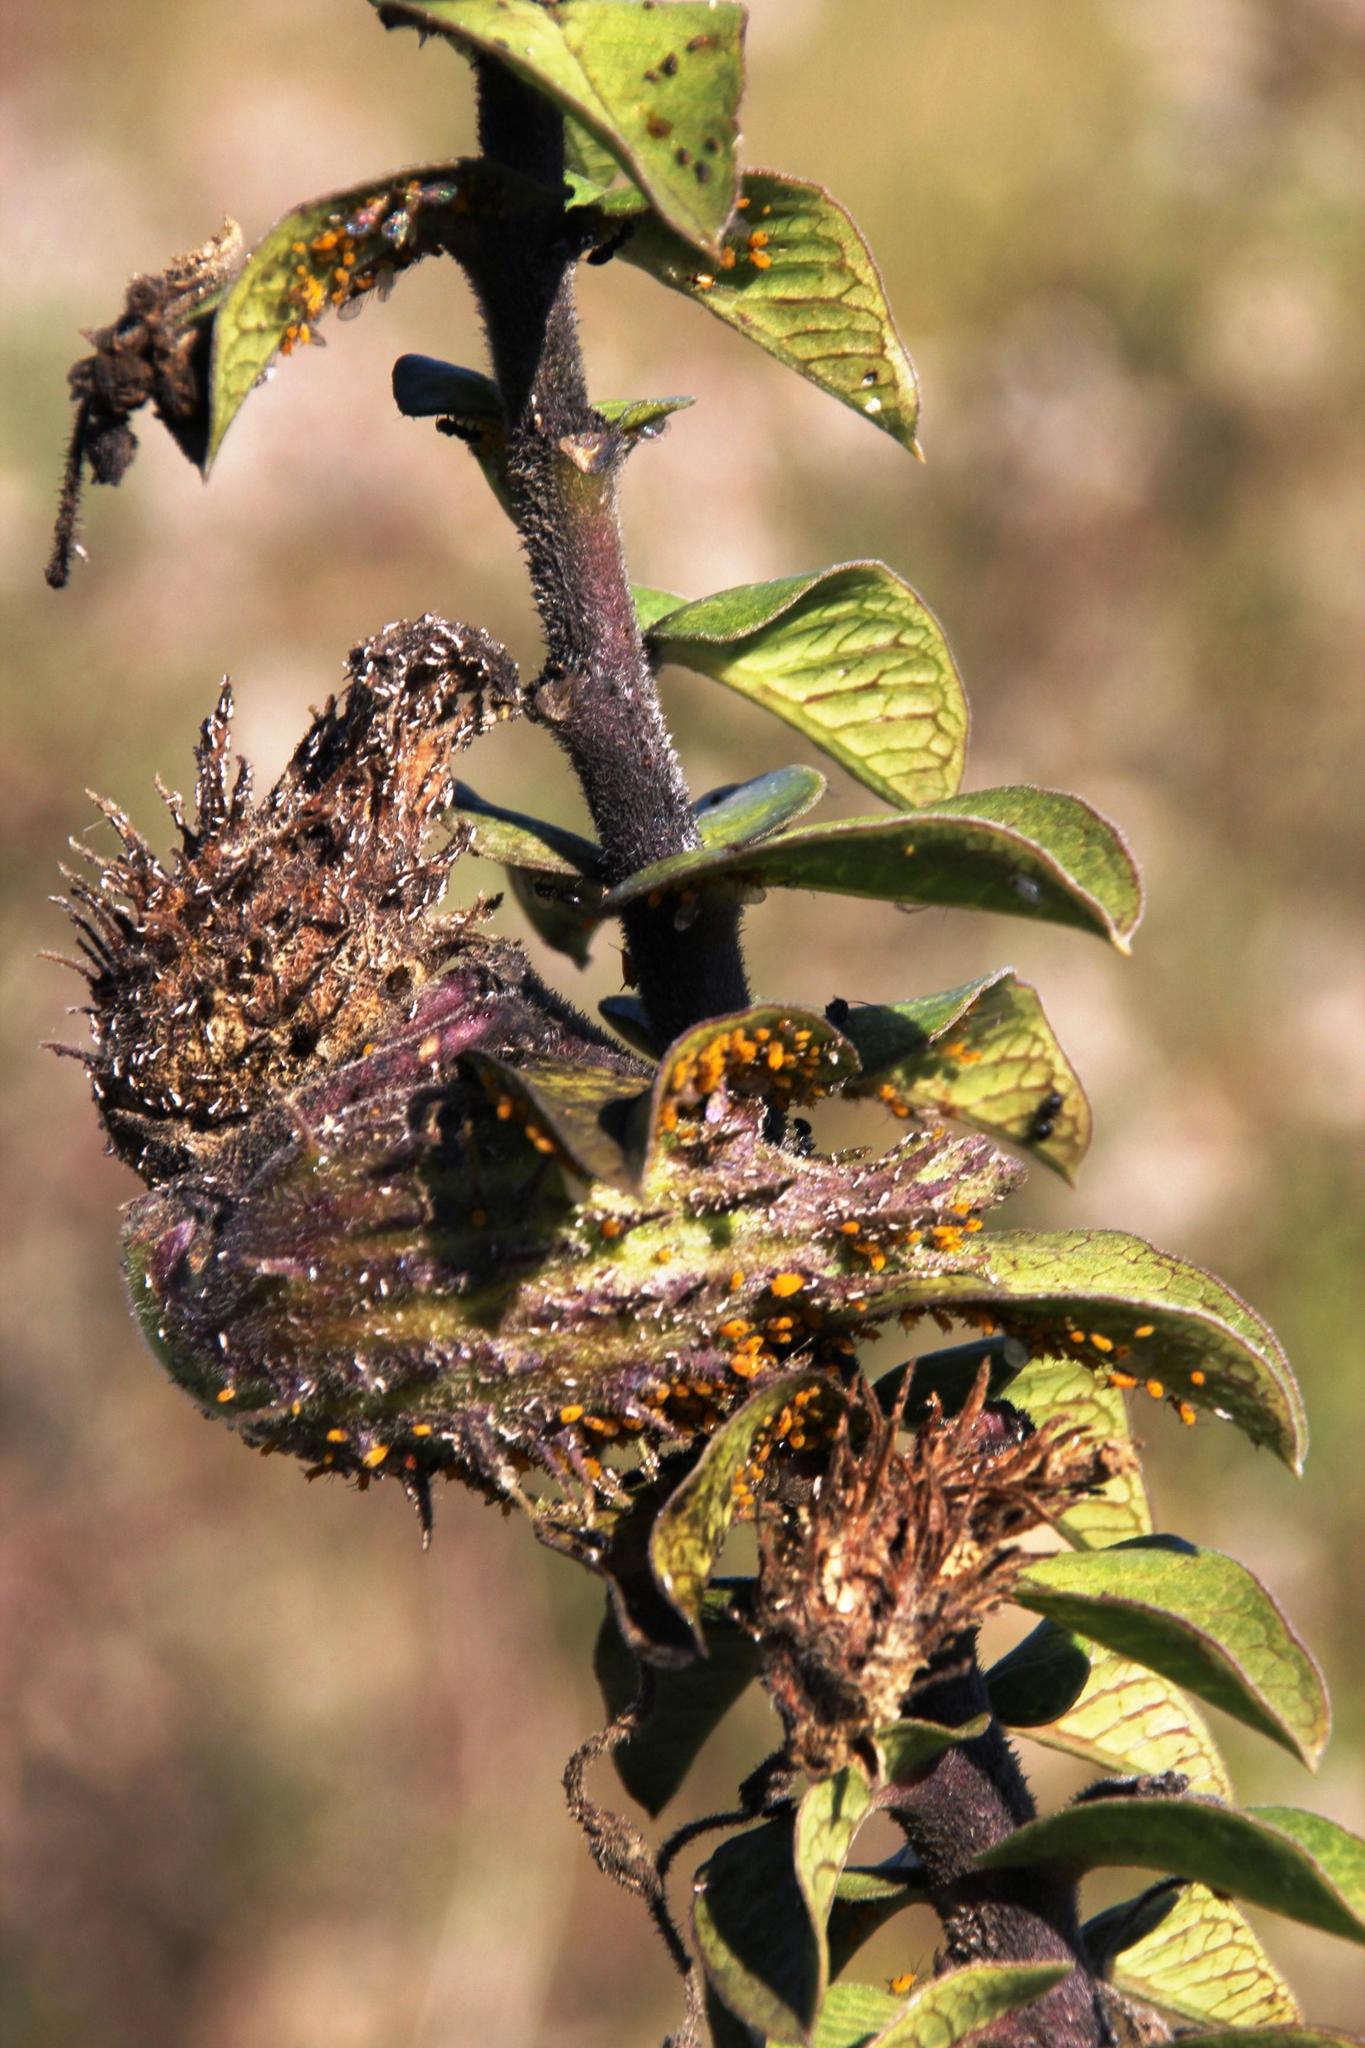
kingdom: Plantae
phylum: Tracheophyta
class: Magnoliopsida
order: Gentianales
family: Apocynaceae
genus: Gomphocarpus
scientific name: Gomphocarpus cancellatus
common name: Wild cotton
